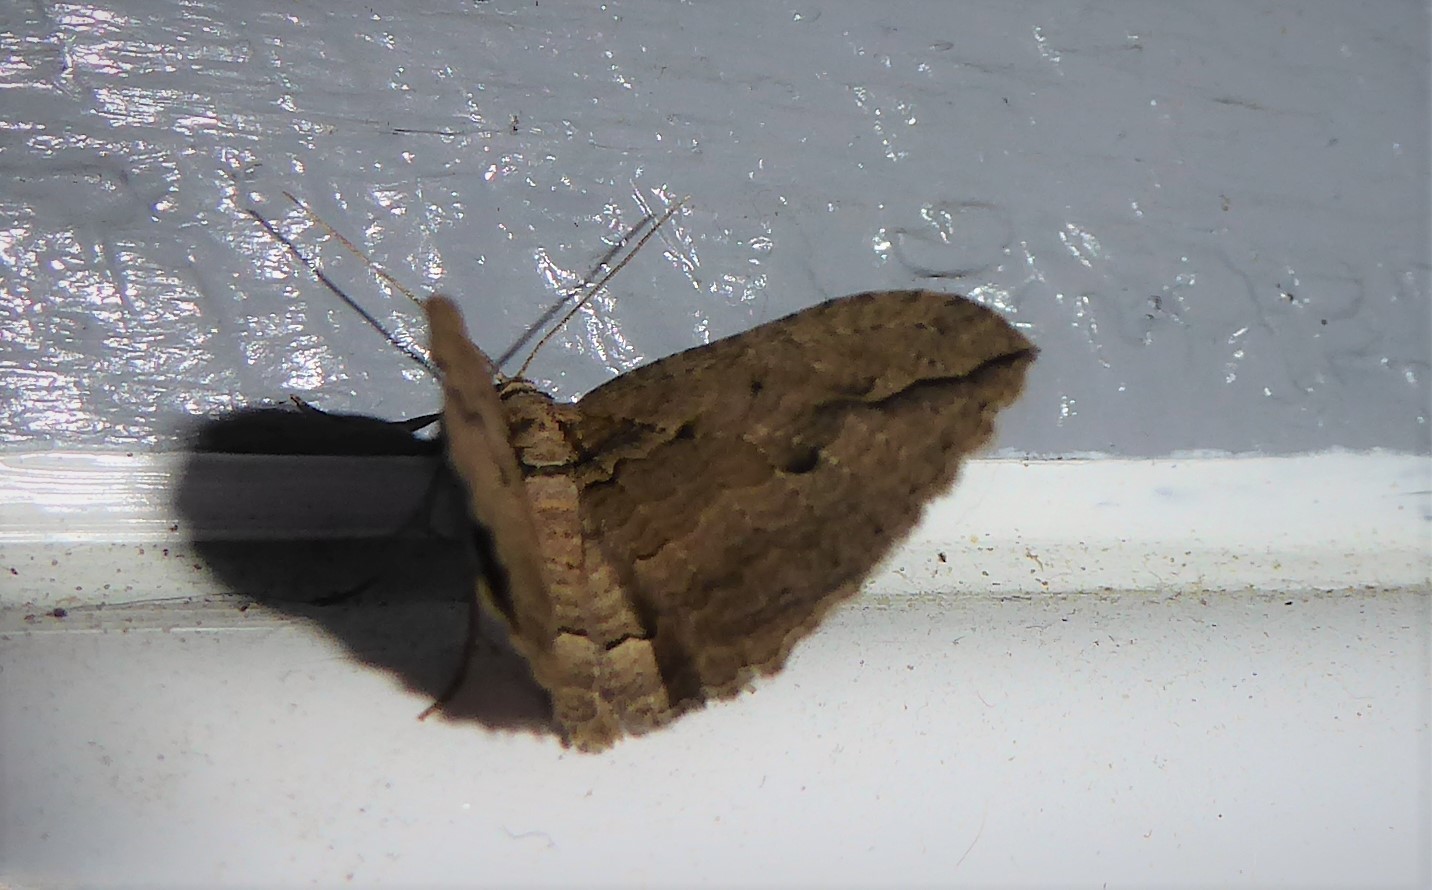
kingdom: Animalia
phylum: Arthropoda
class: Insecta
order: Lepidoptera
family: Geometridae
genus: Austrocidaria
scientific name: Austrocidaria gobiata
